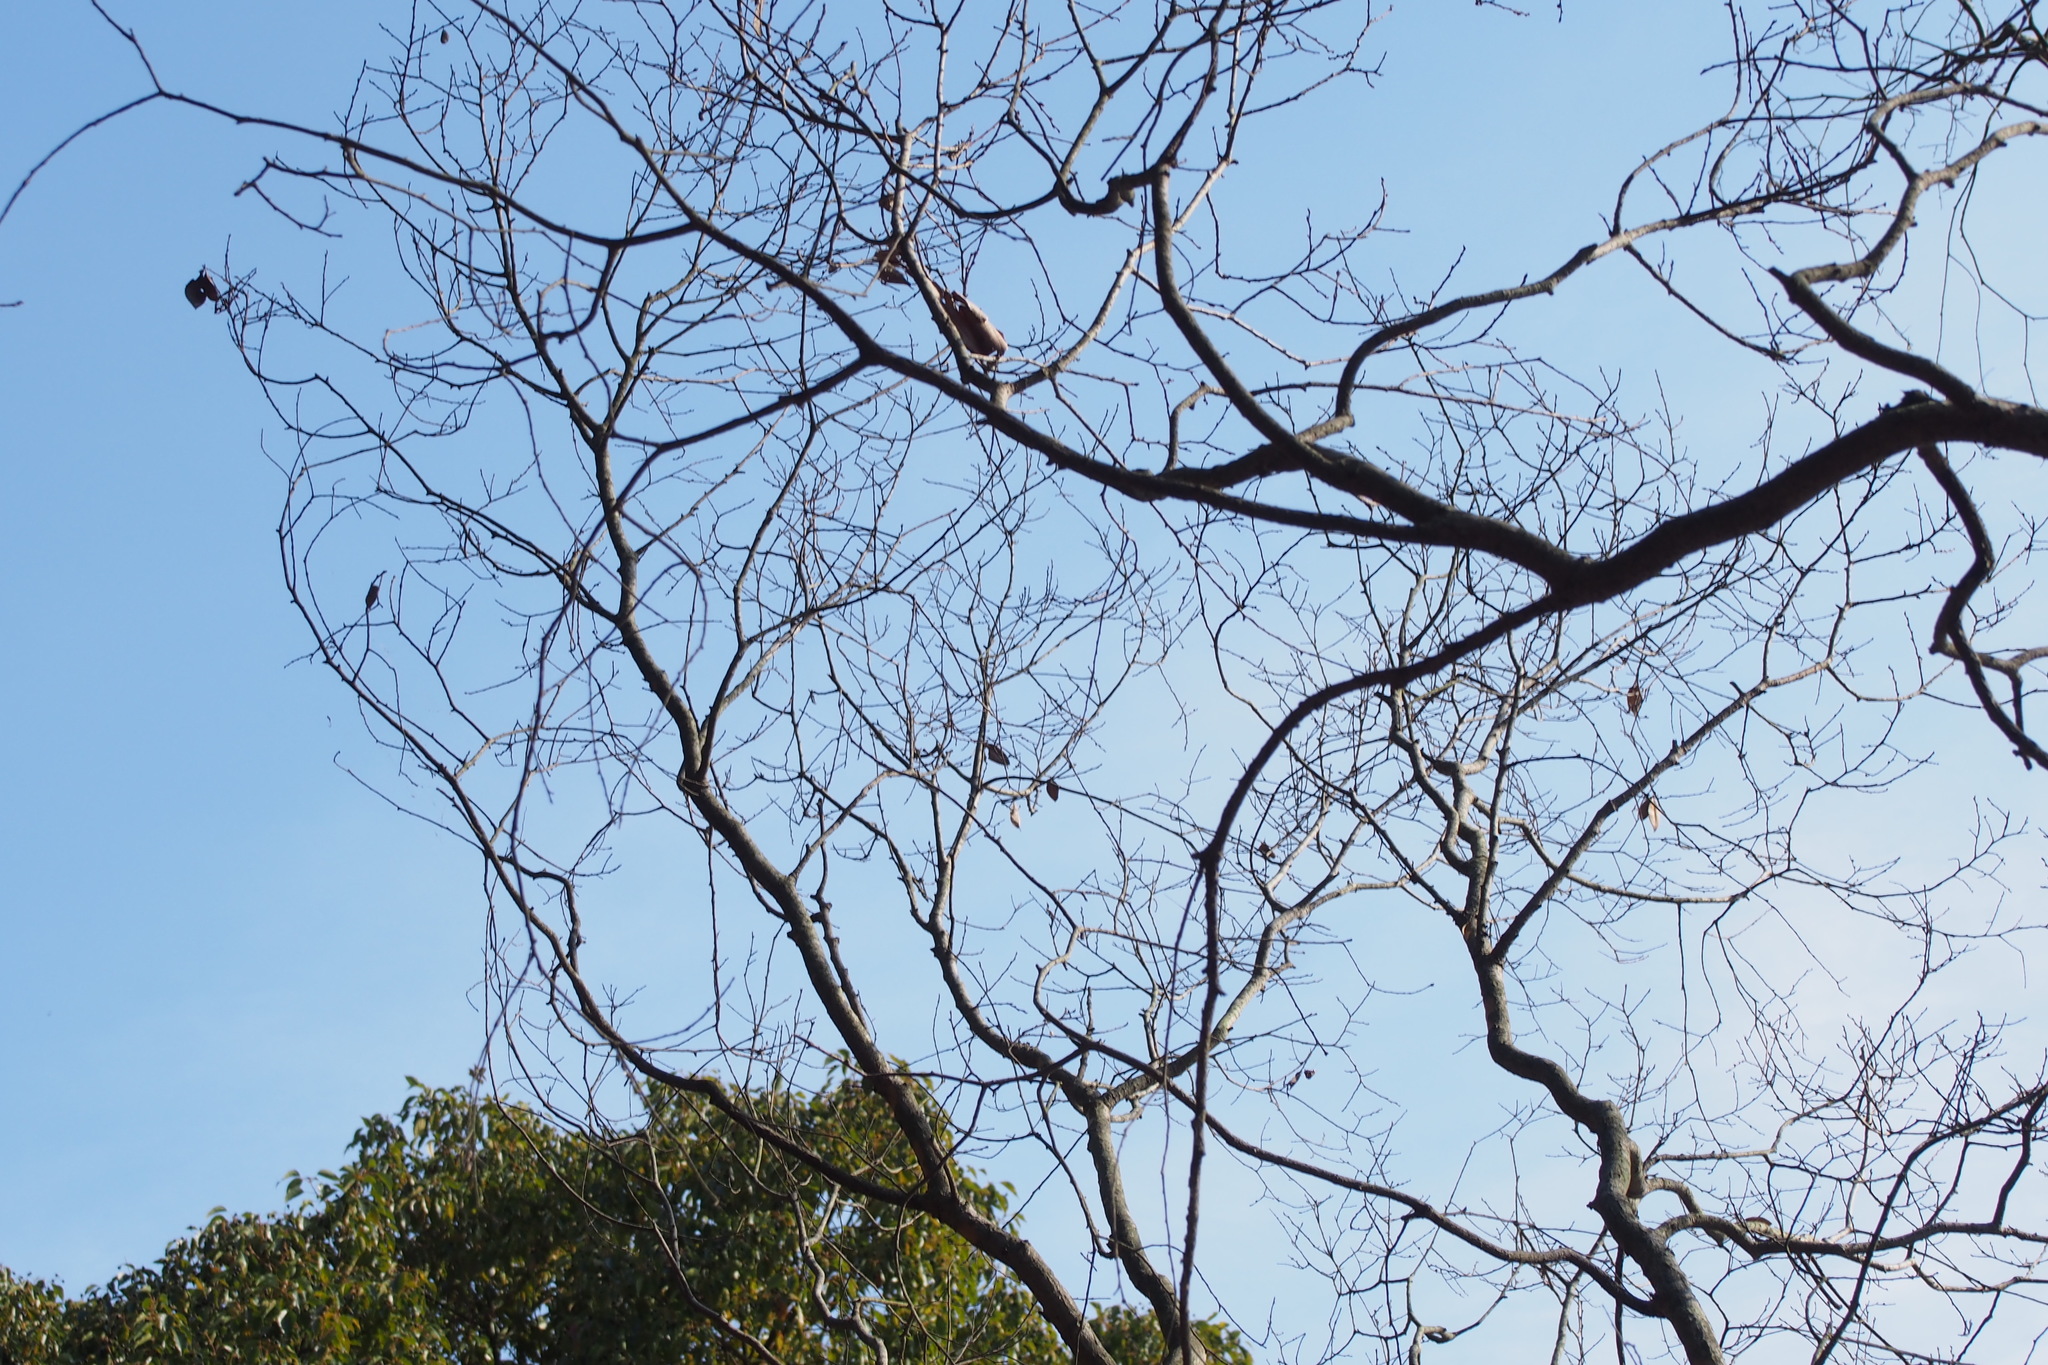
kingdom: Plantae
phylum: Tracheophyta
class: Magnoliopsida
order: Rosales
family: Ulmaceae
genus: Ulmus
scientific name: Ulmus parvifolia
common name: Chinese elm
